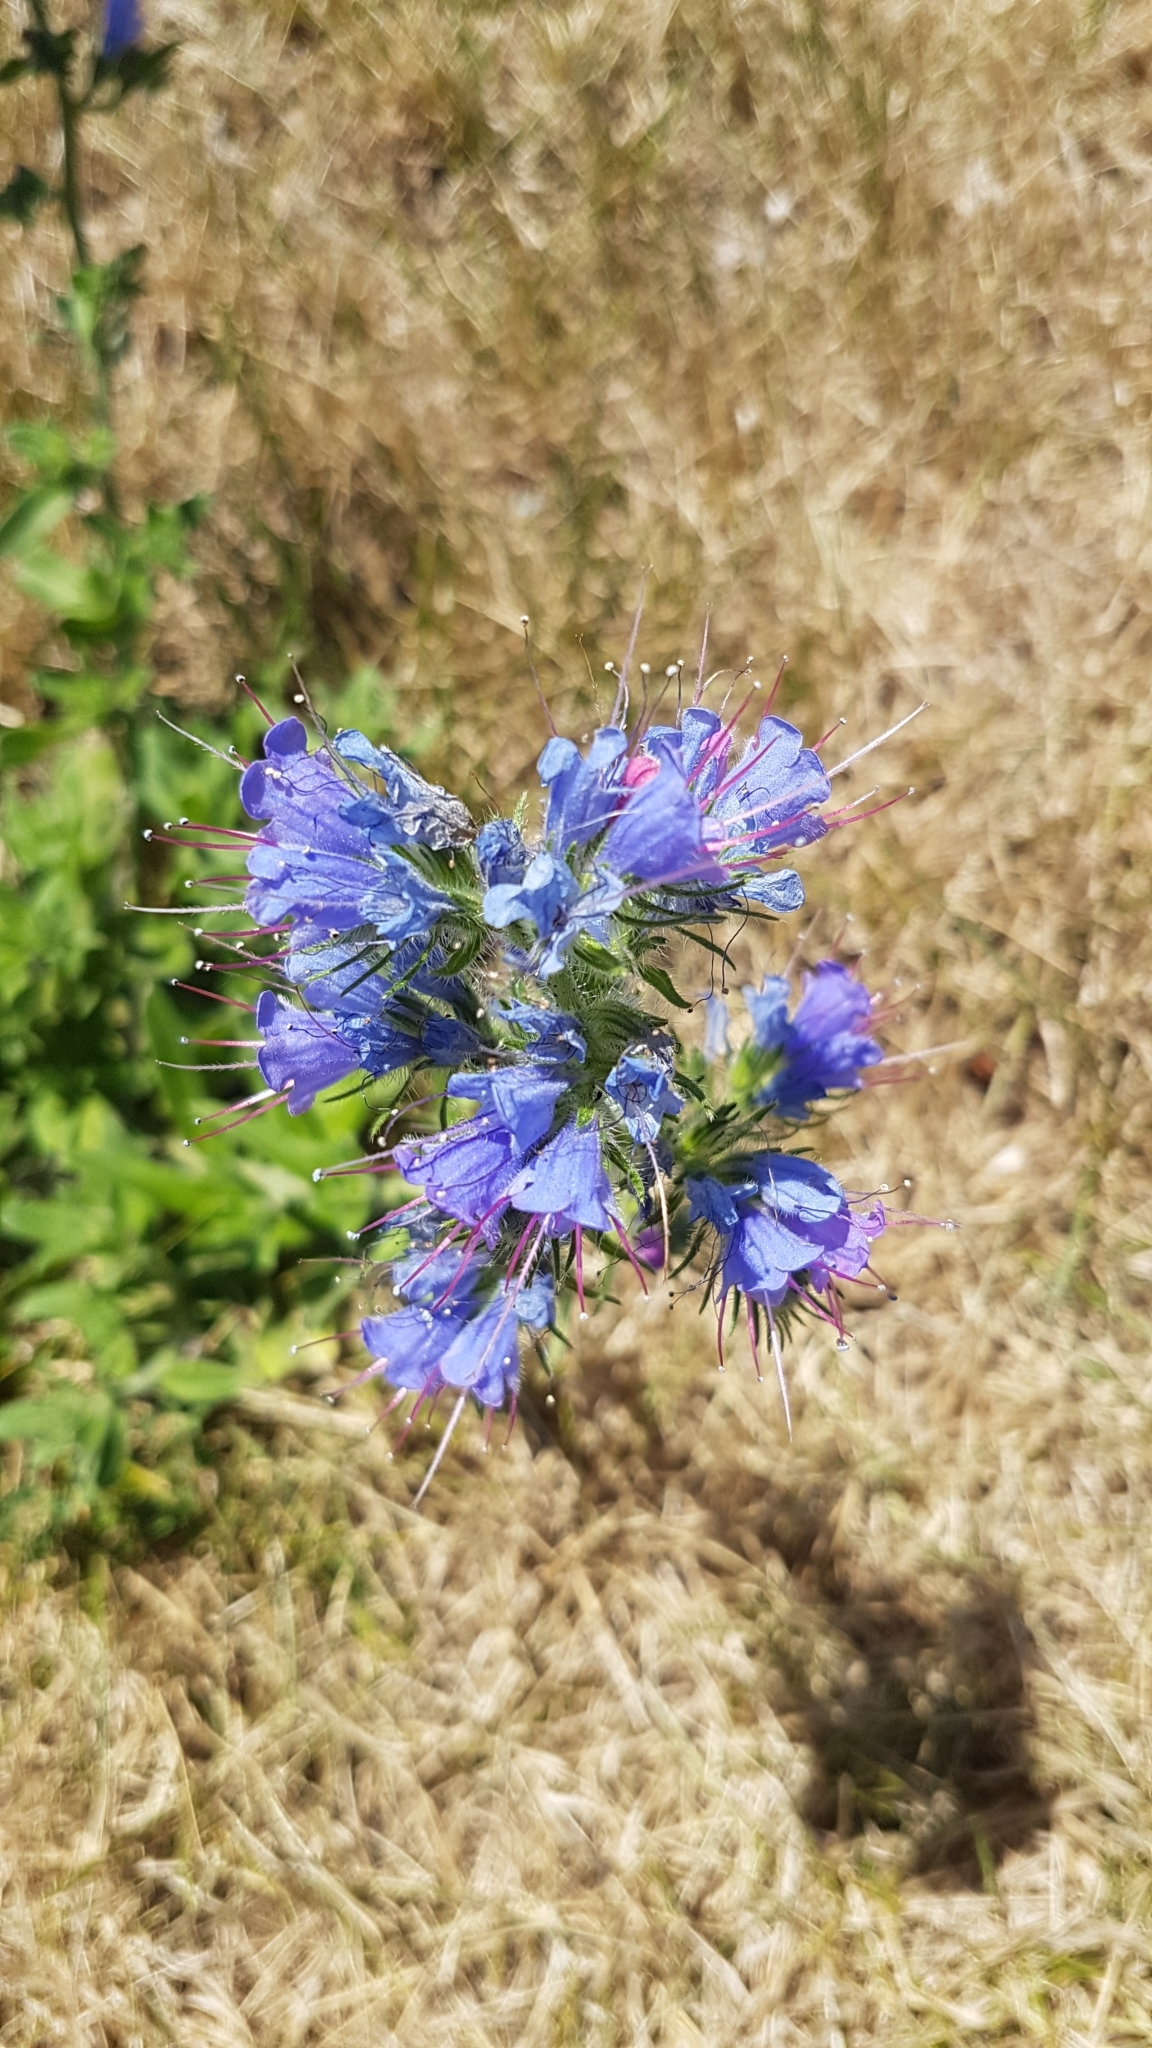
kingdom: Plantae
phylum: Tracheophyta
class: Magnoliopsida
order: Boraginales
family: Boraginaceae
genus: Echium
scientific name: Echium vulgare
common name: Common viper's bugloss
